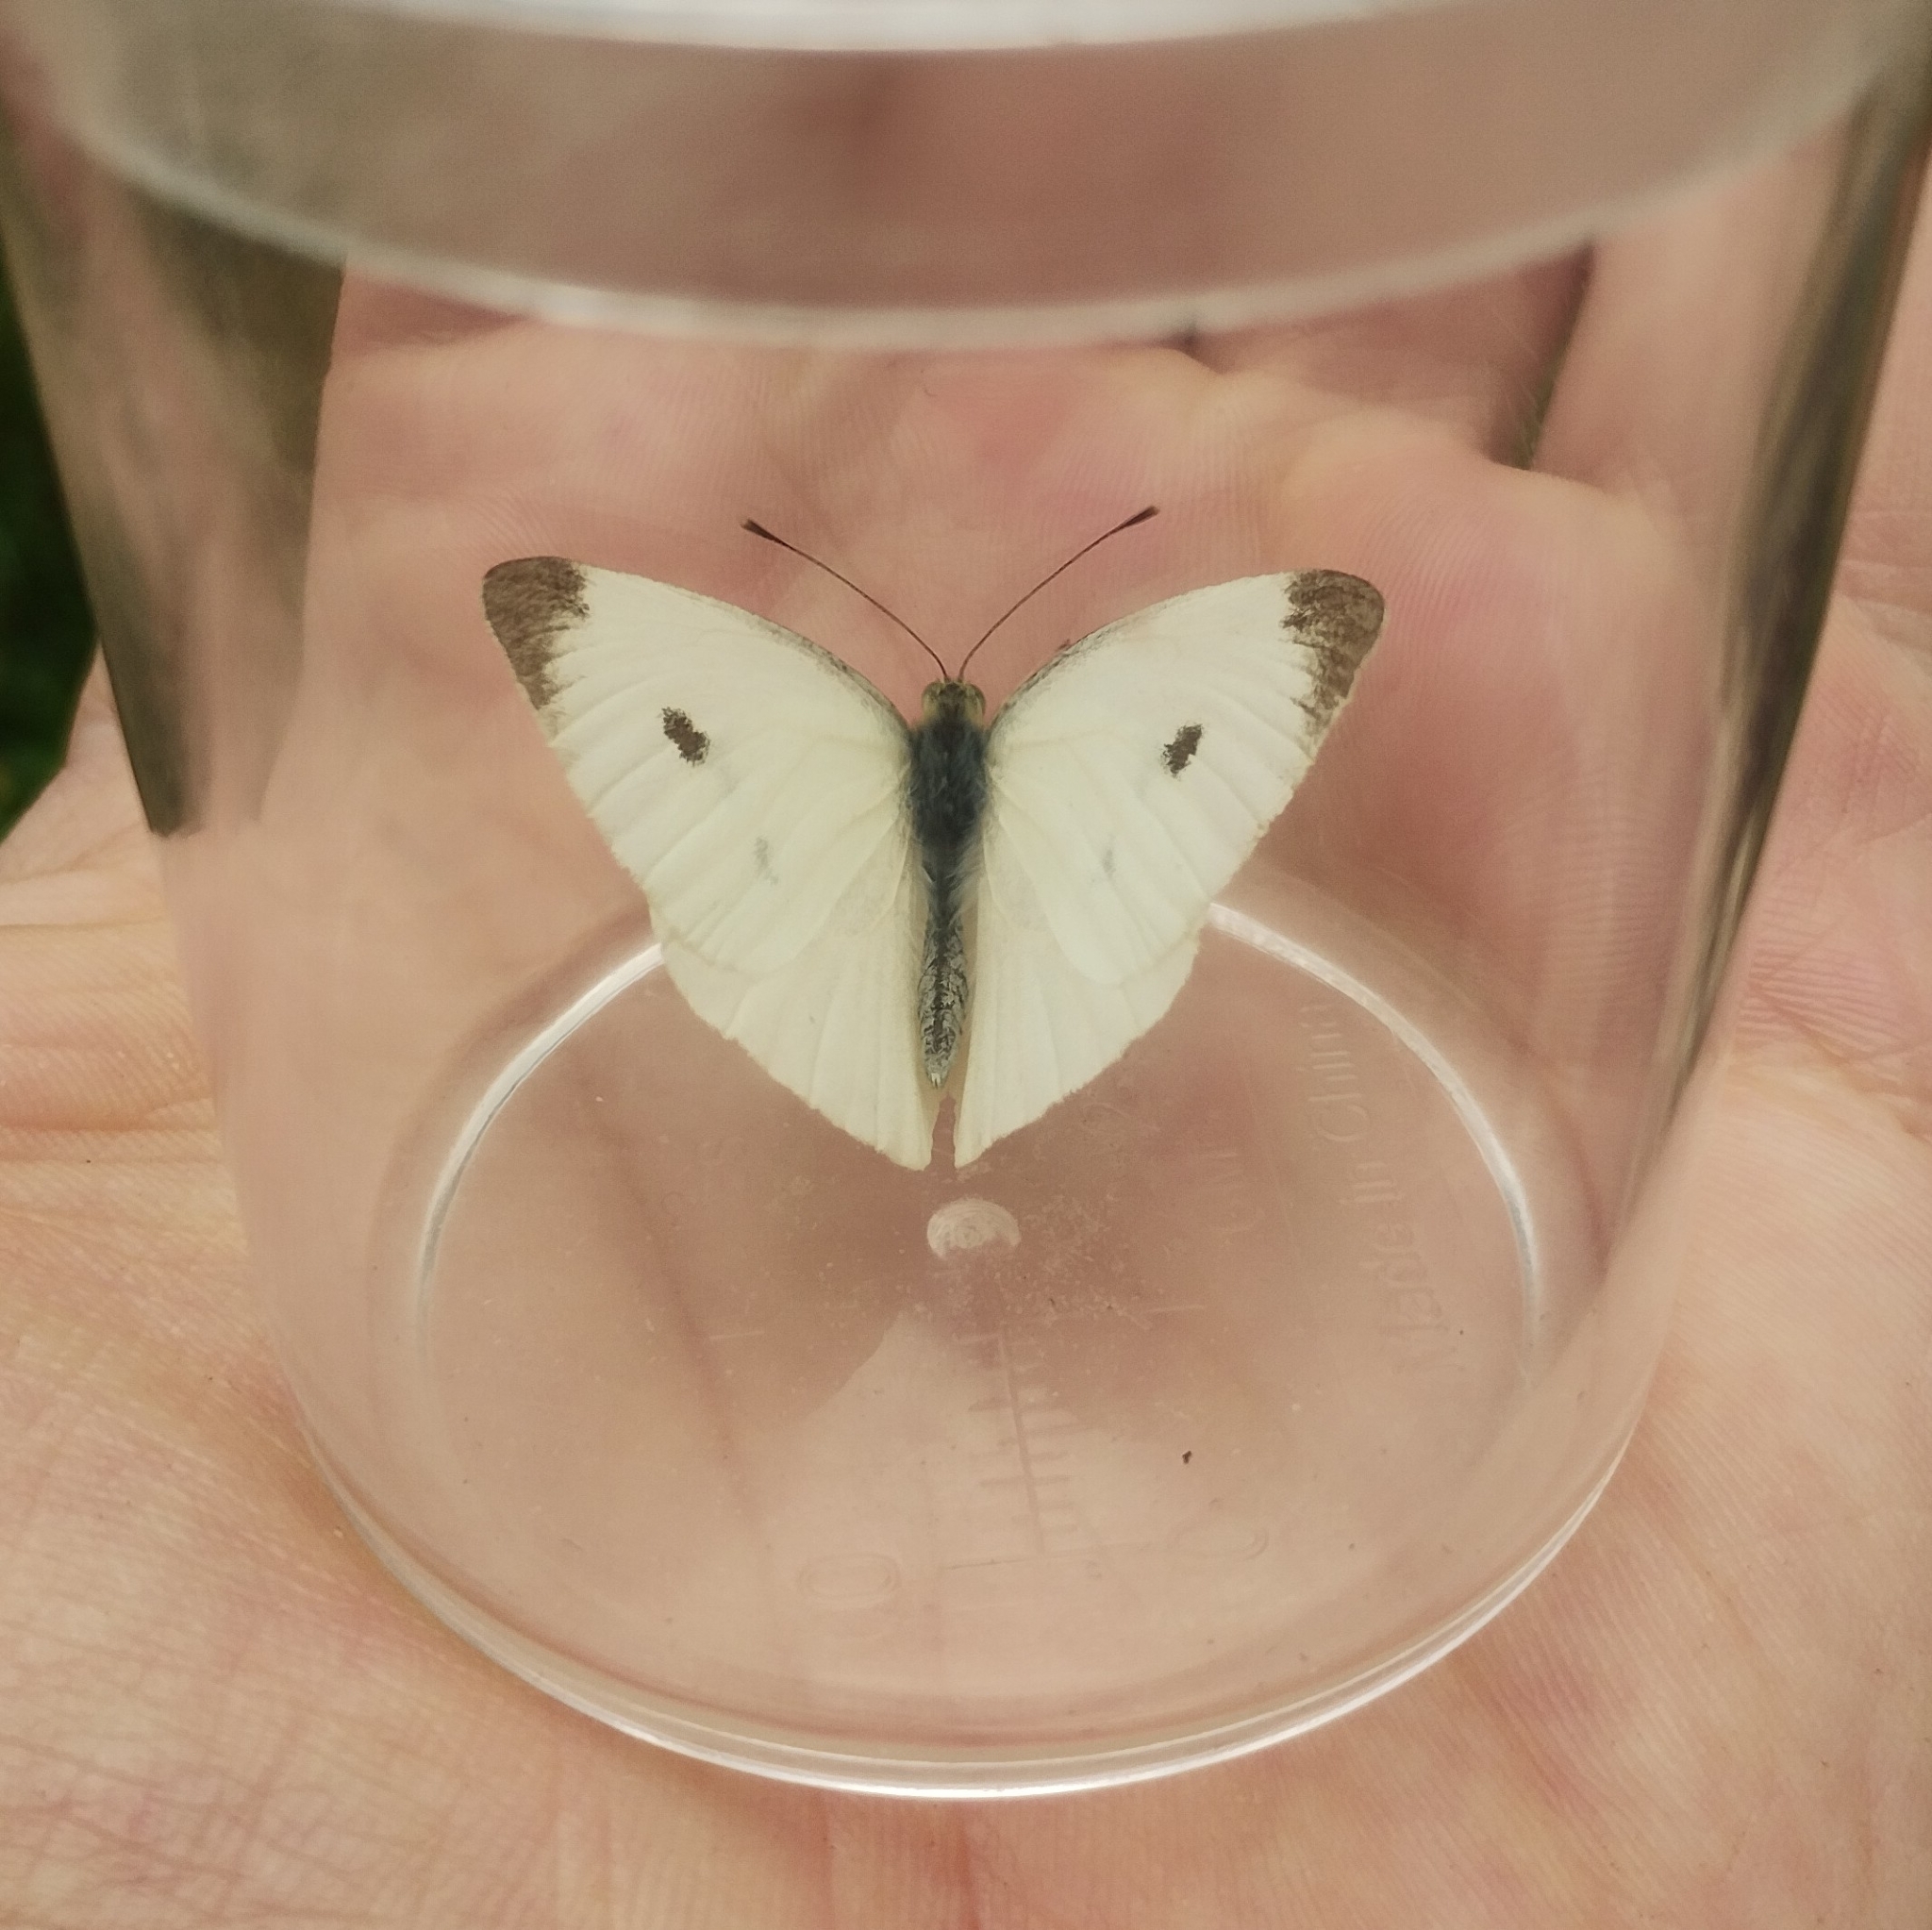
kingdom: Animalia
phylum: Arthropoda
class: Insecta
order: Lepidoptera
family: Pieridae
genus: Pieris
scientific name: Pieris rapae
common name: Small white
